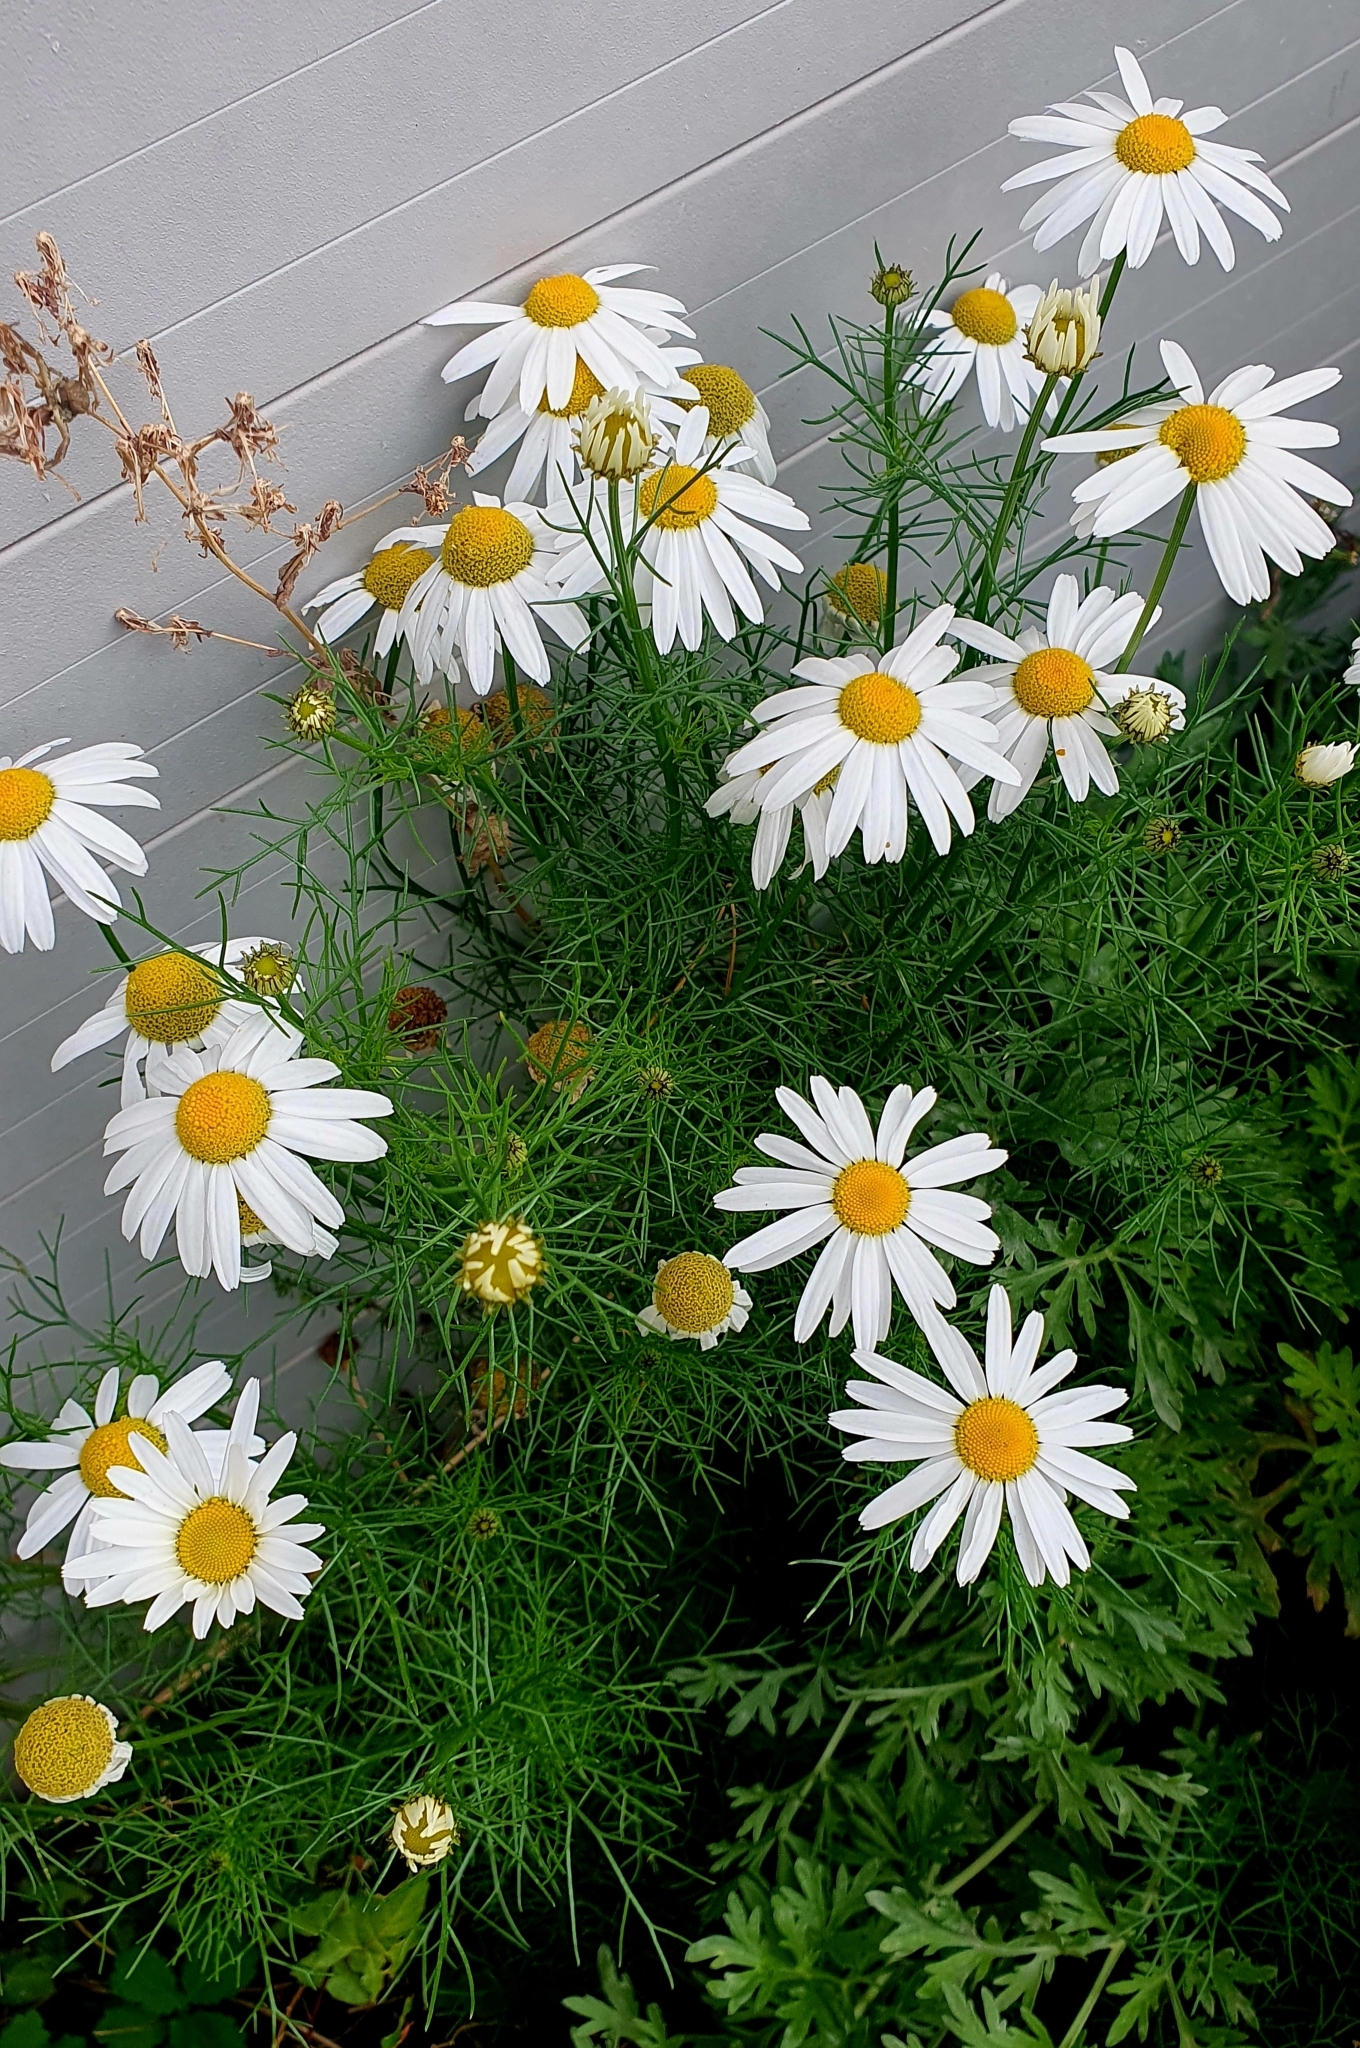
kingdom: Plantae
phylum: Tracheophyta
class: Magnoliopsida
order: Asterales
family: Asteraceae
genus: Tripleurospermum
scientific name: Tripleurospermum inodorum
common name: Scentless mayweed
